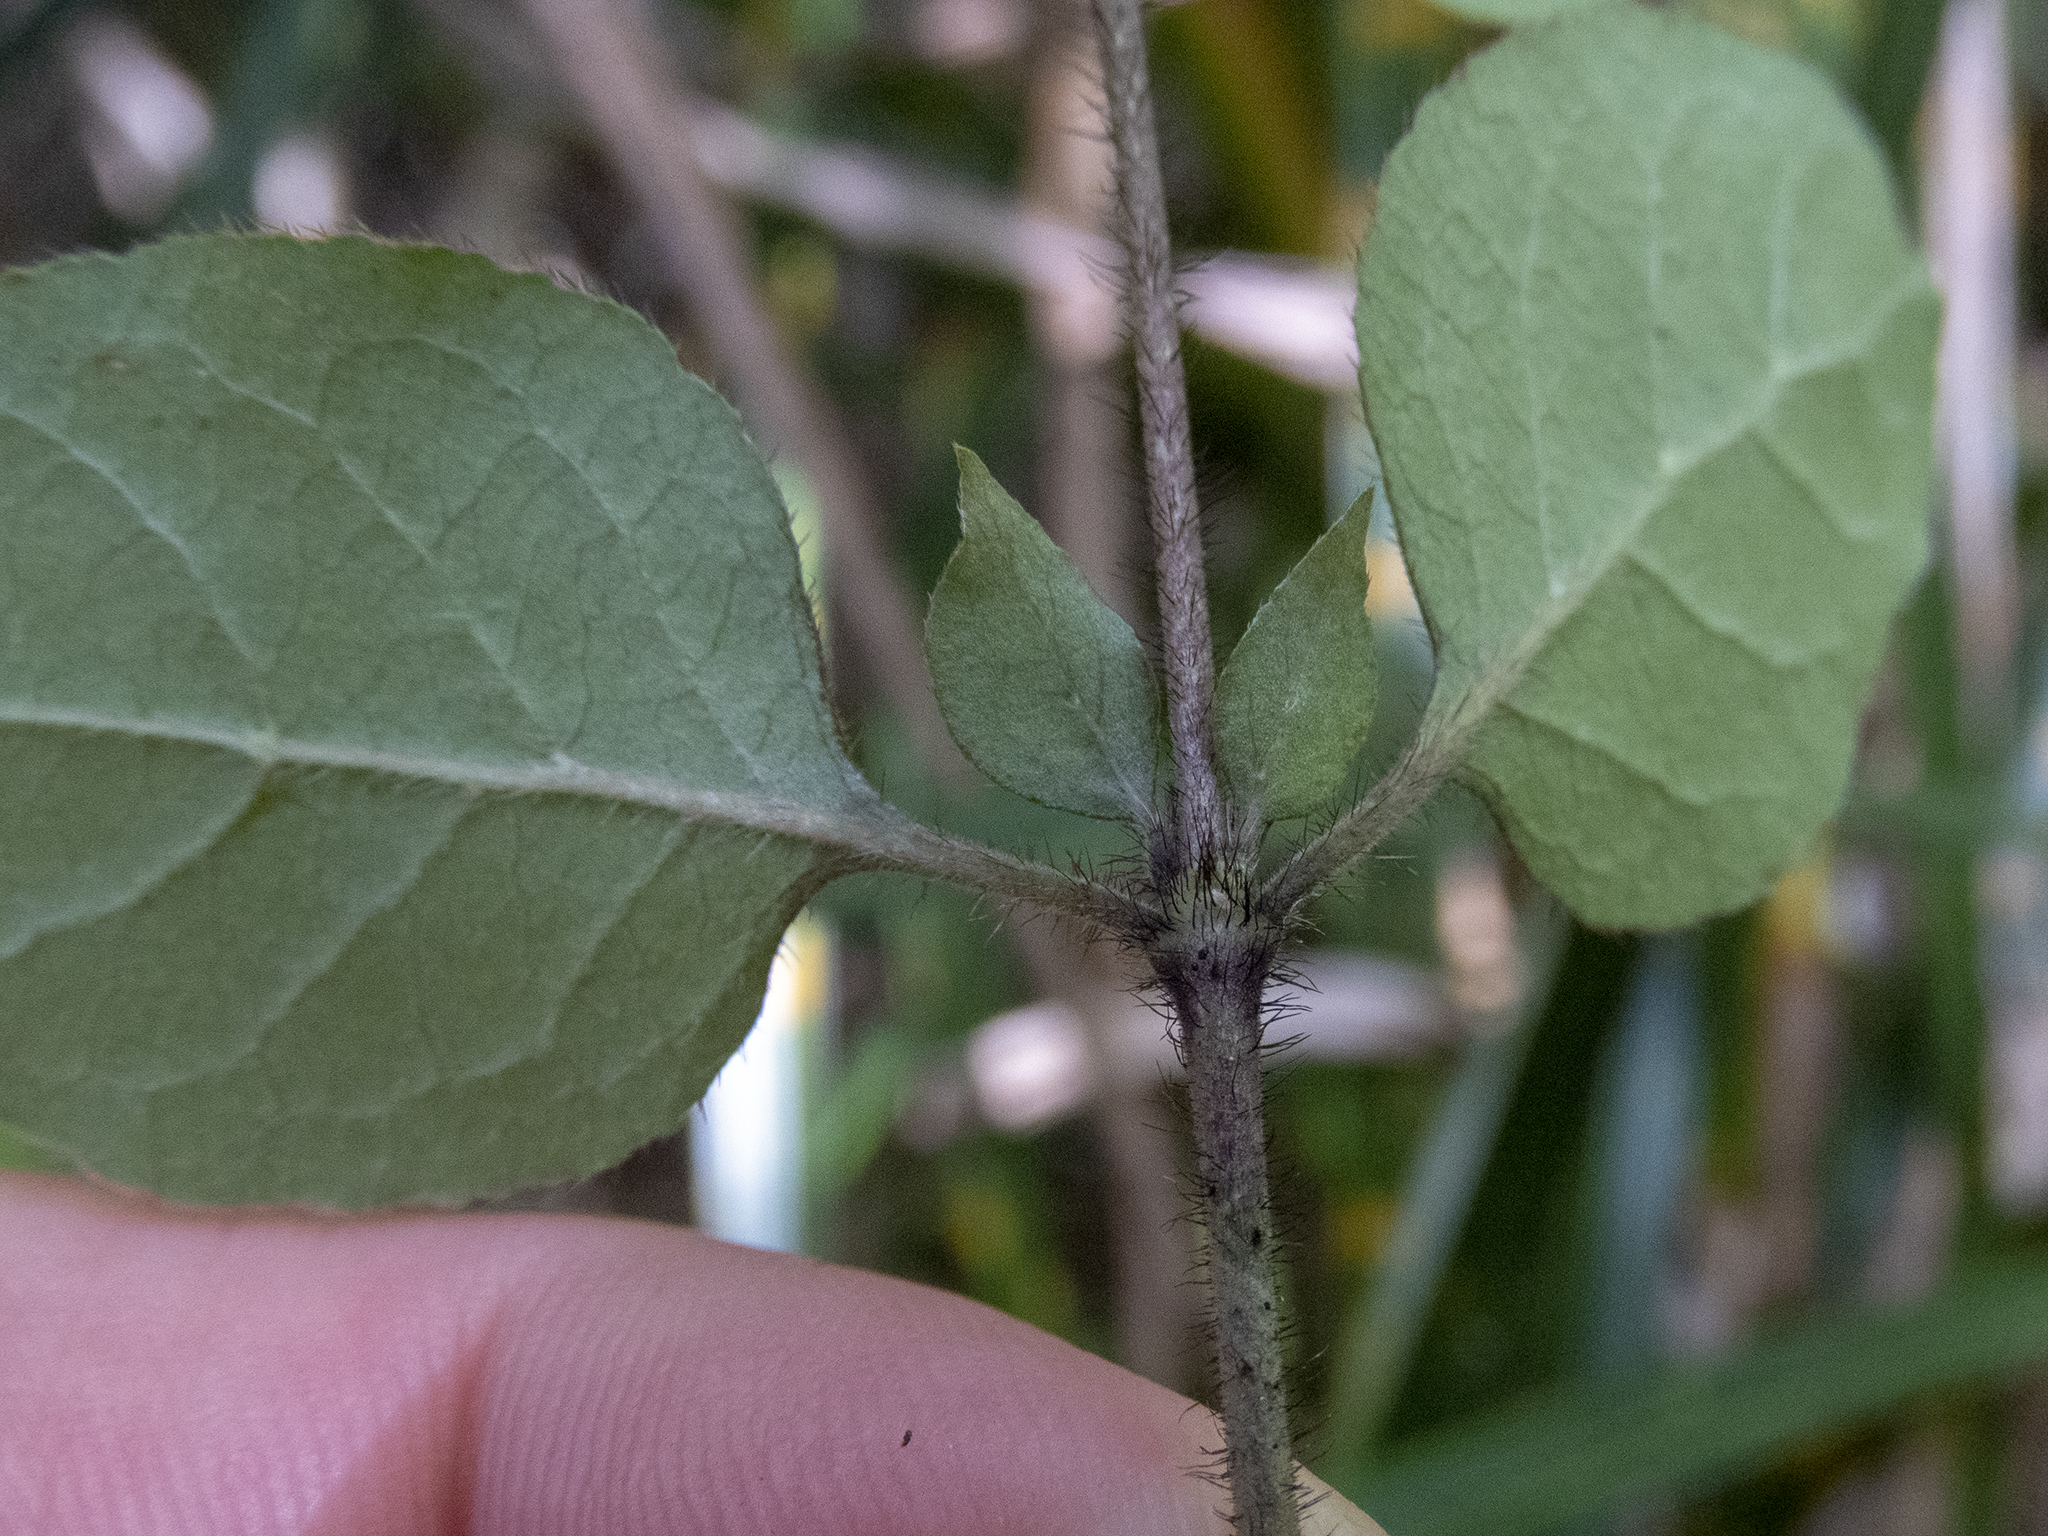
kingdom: Plantae
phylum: Tracheophyta
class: Magnoliopsida
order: Gentianales
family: Rubiaceae
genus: Coprosma
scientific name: Coprosma rotundifolia
